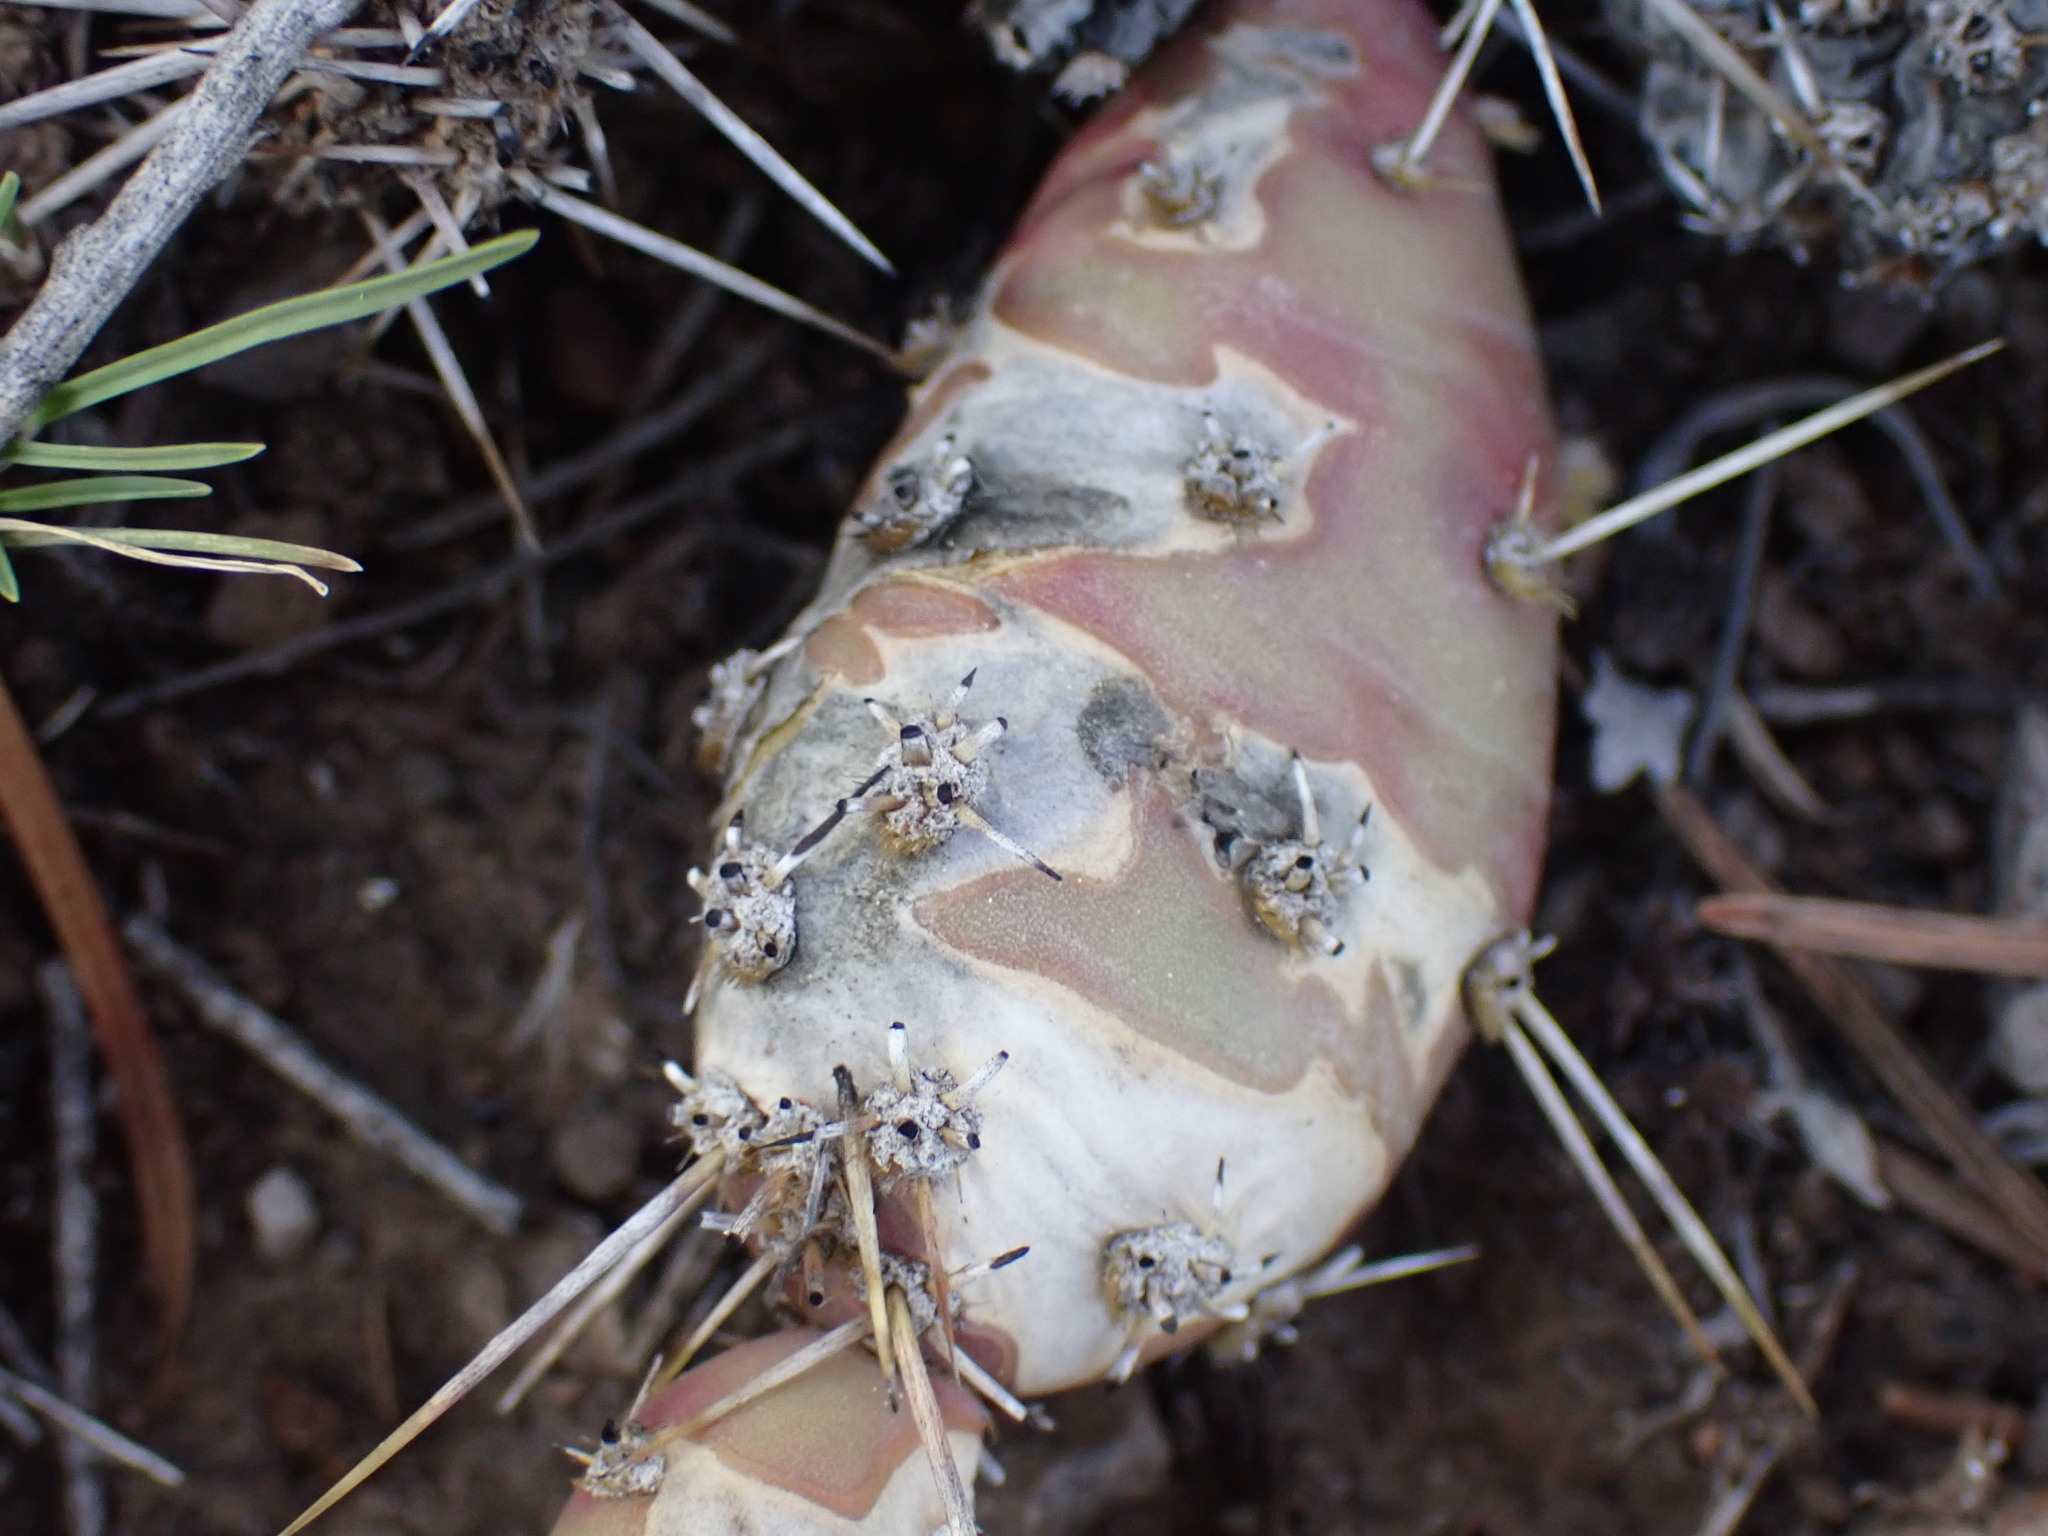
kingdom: Plantae
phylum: Tracheophyta
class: Magnoliopsida
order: Caryophyllales
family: Cactaceae
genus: Opuntia
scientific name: Opuntia fragilis
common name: Brittle cactus
